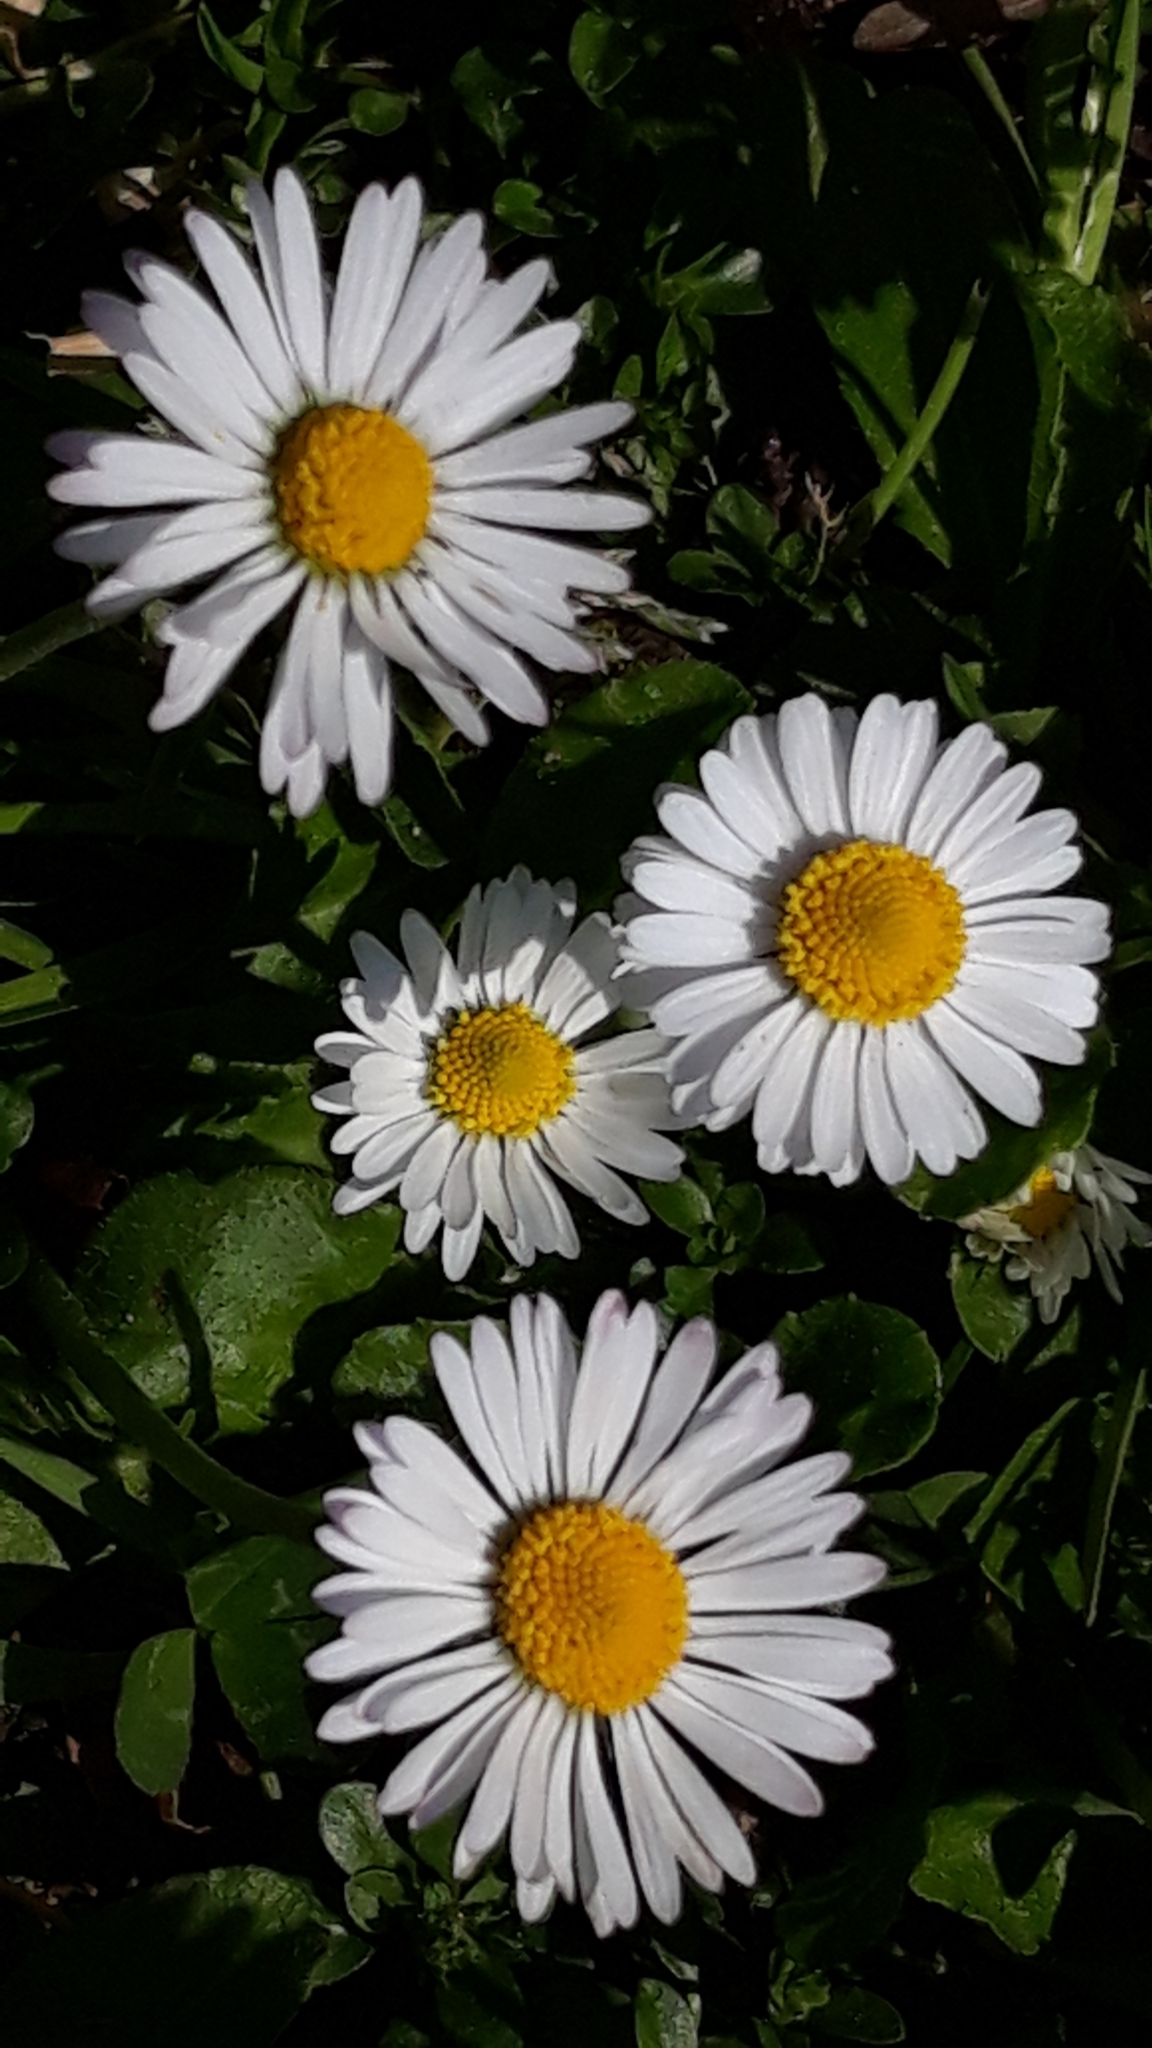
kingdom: Plantae
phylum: Tracheophyta
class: Magnoliopsida
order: Asterales
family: Asteraceae
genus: Bellis
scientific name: Bellis perennis
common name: Lawndaisy
